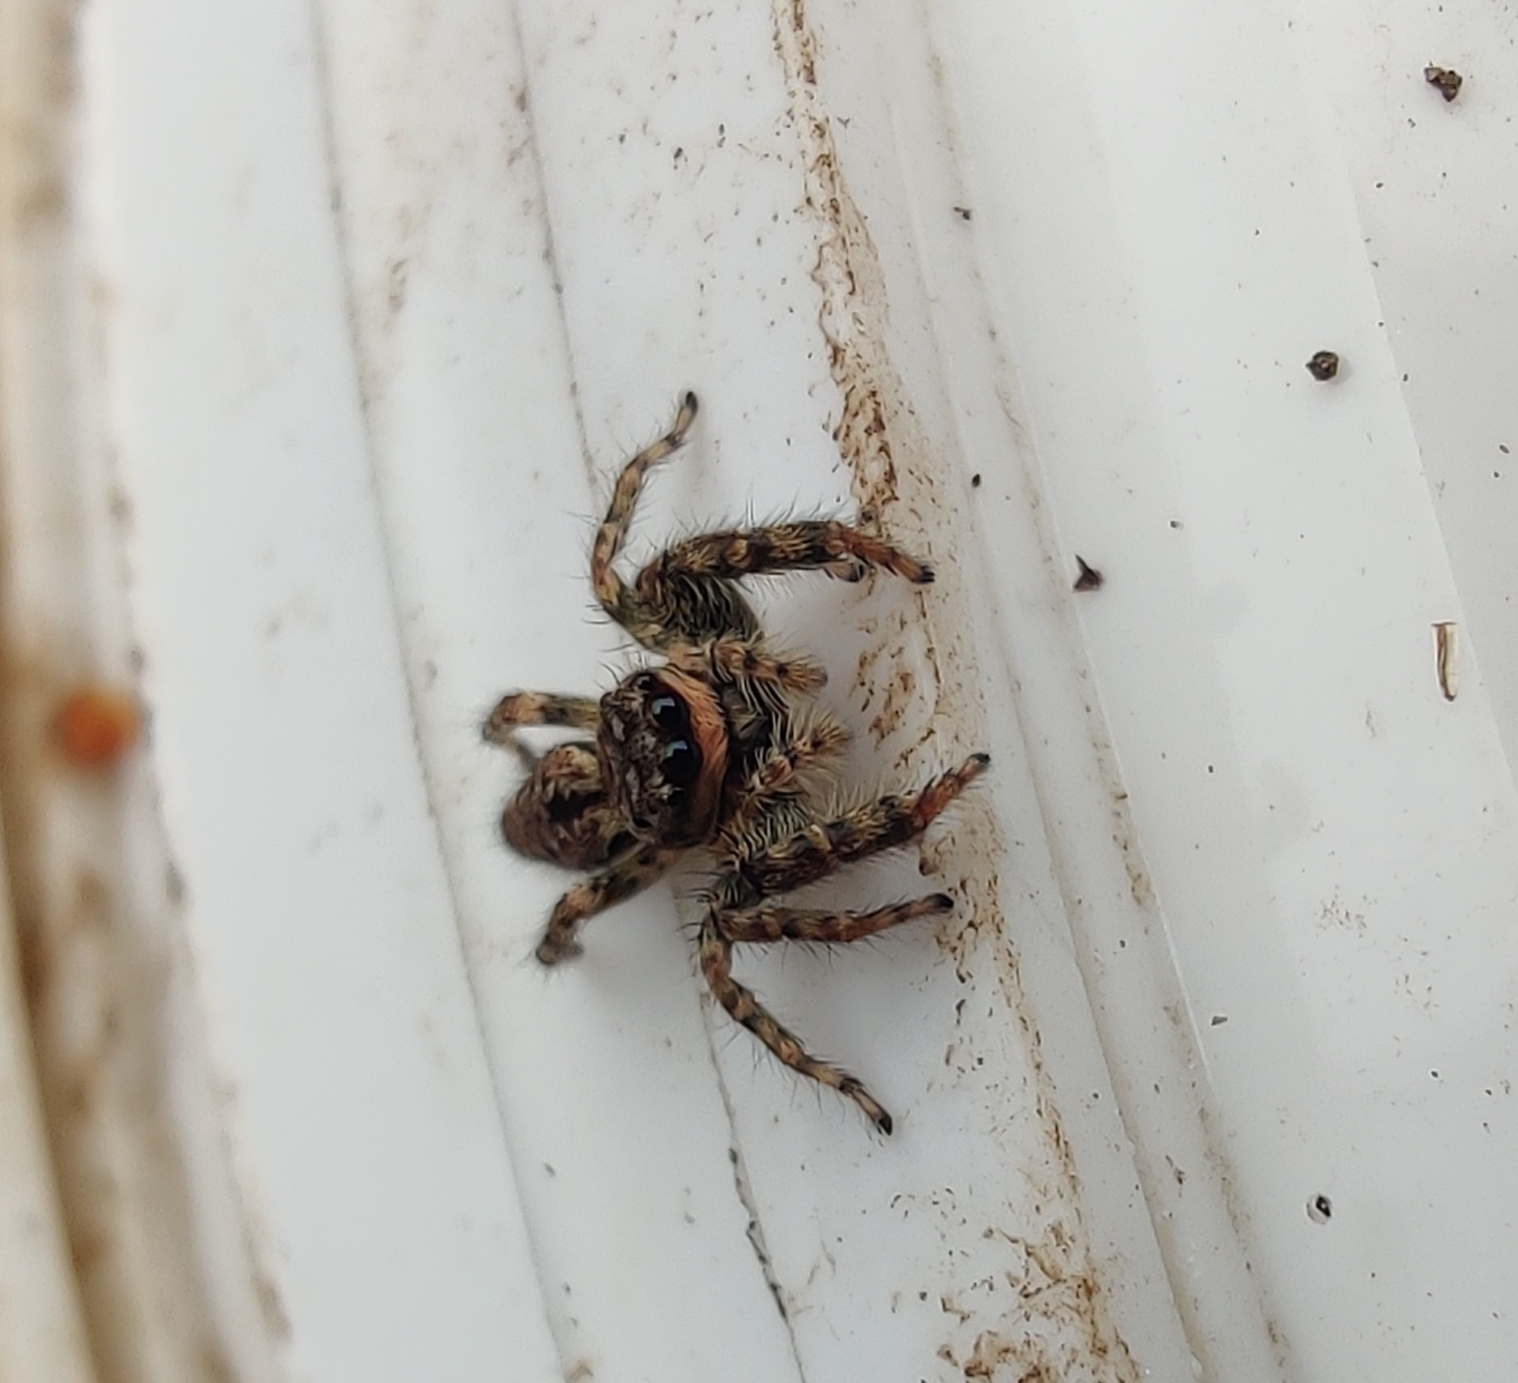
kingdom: Animalia
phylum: Arthropoda
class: Arachnida
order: Araneae
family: Salticidae
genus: Marpissa
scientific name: Marpissa muscosa
